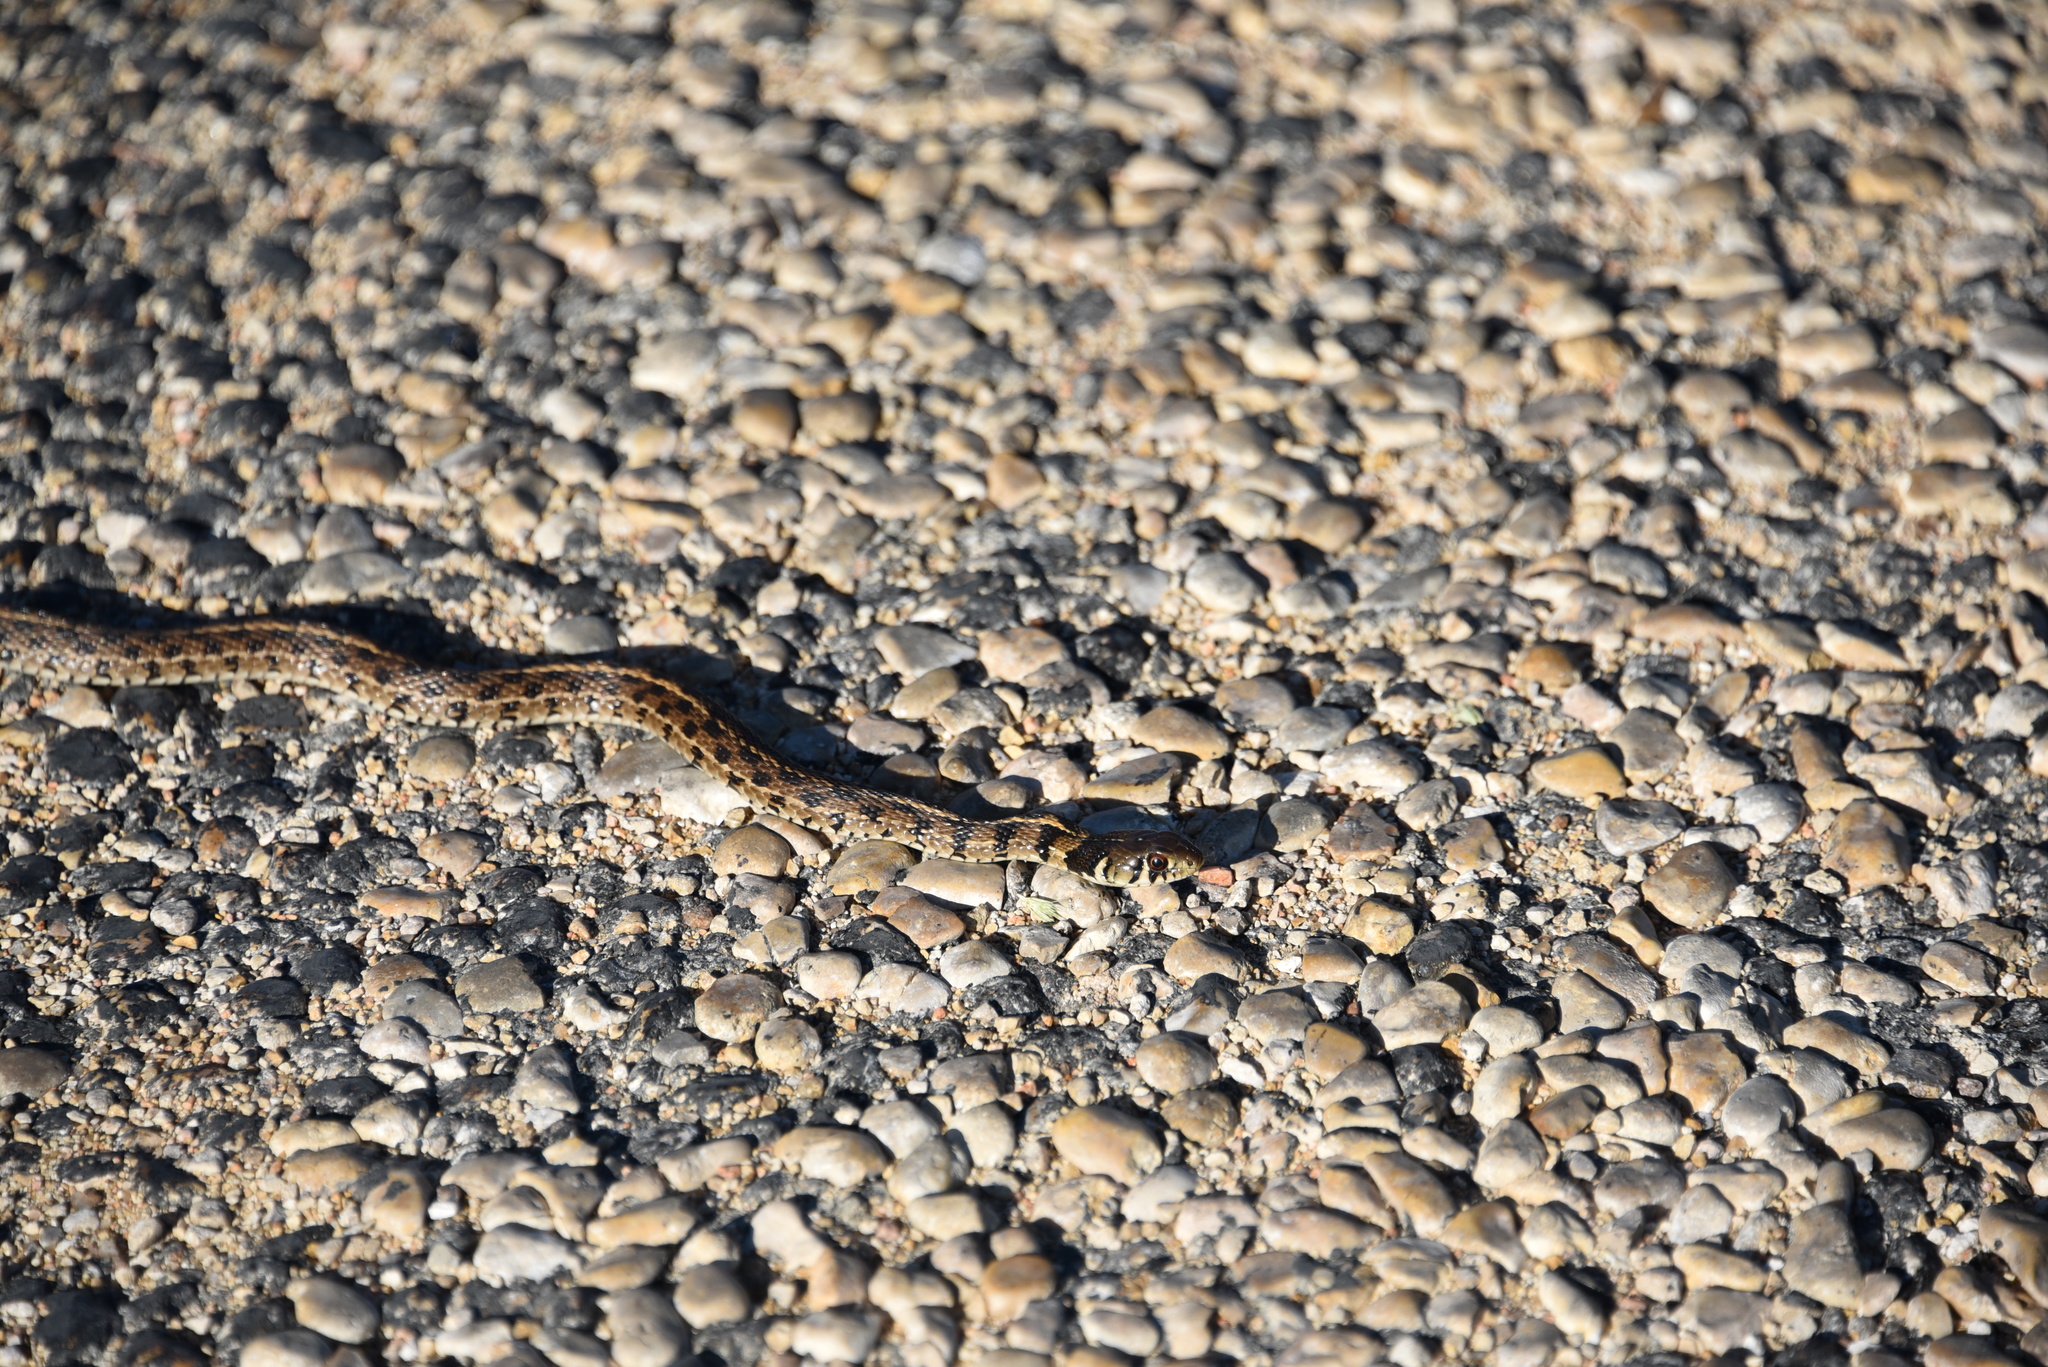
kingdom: Animalia
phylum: Chordata
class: Squamata
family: Colubridae
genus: Thamnophis
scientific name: Thamnophis marcianus
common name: Checkered garter snake
